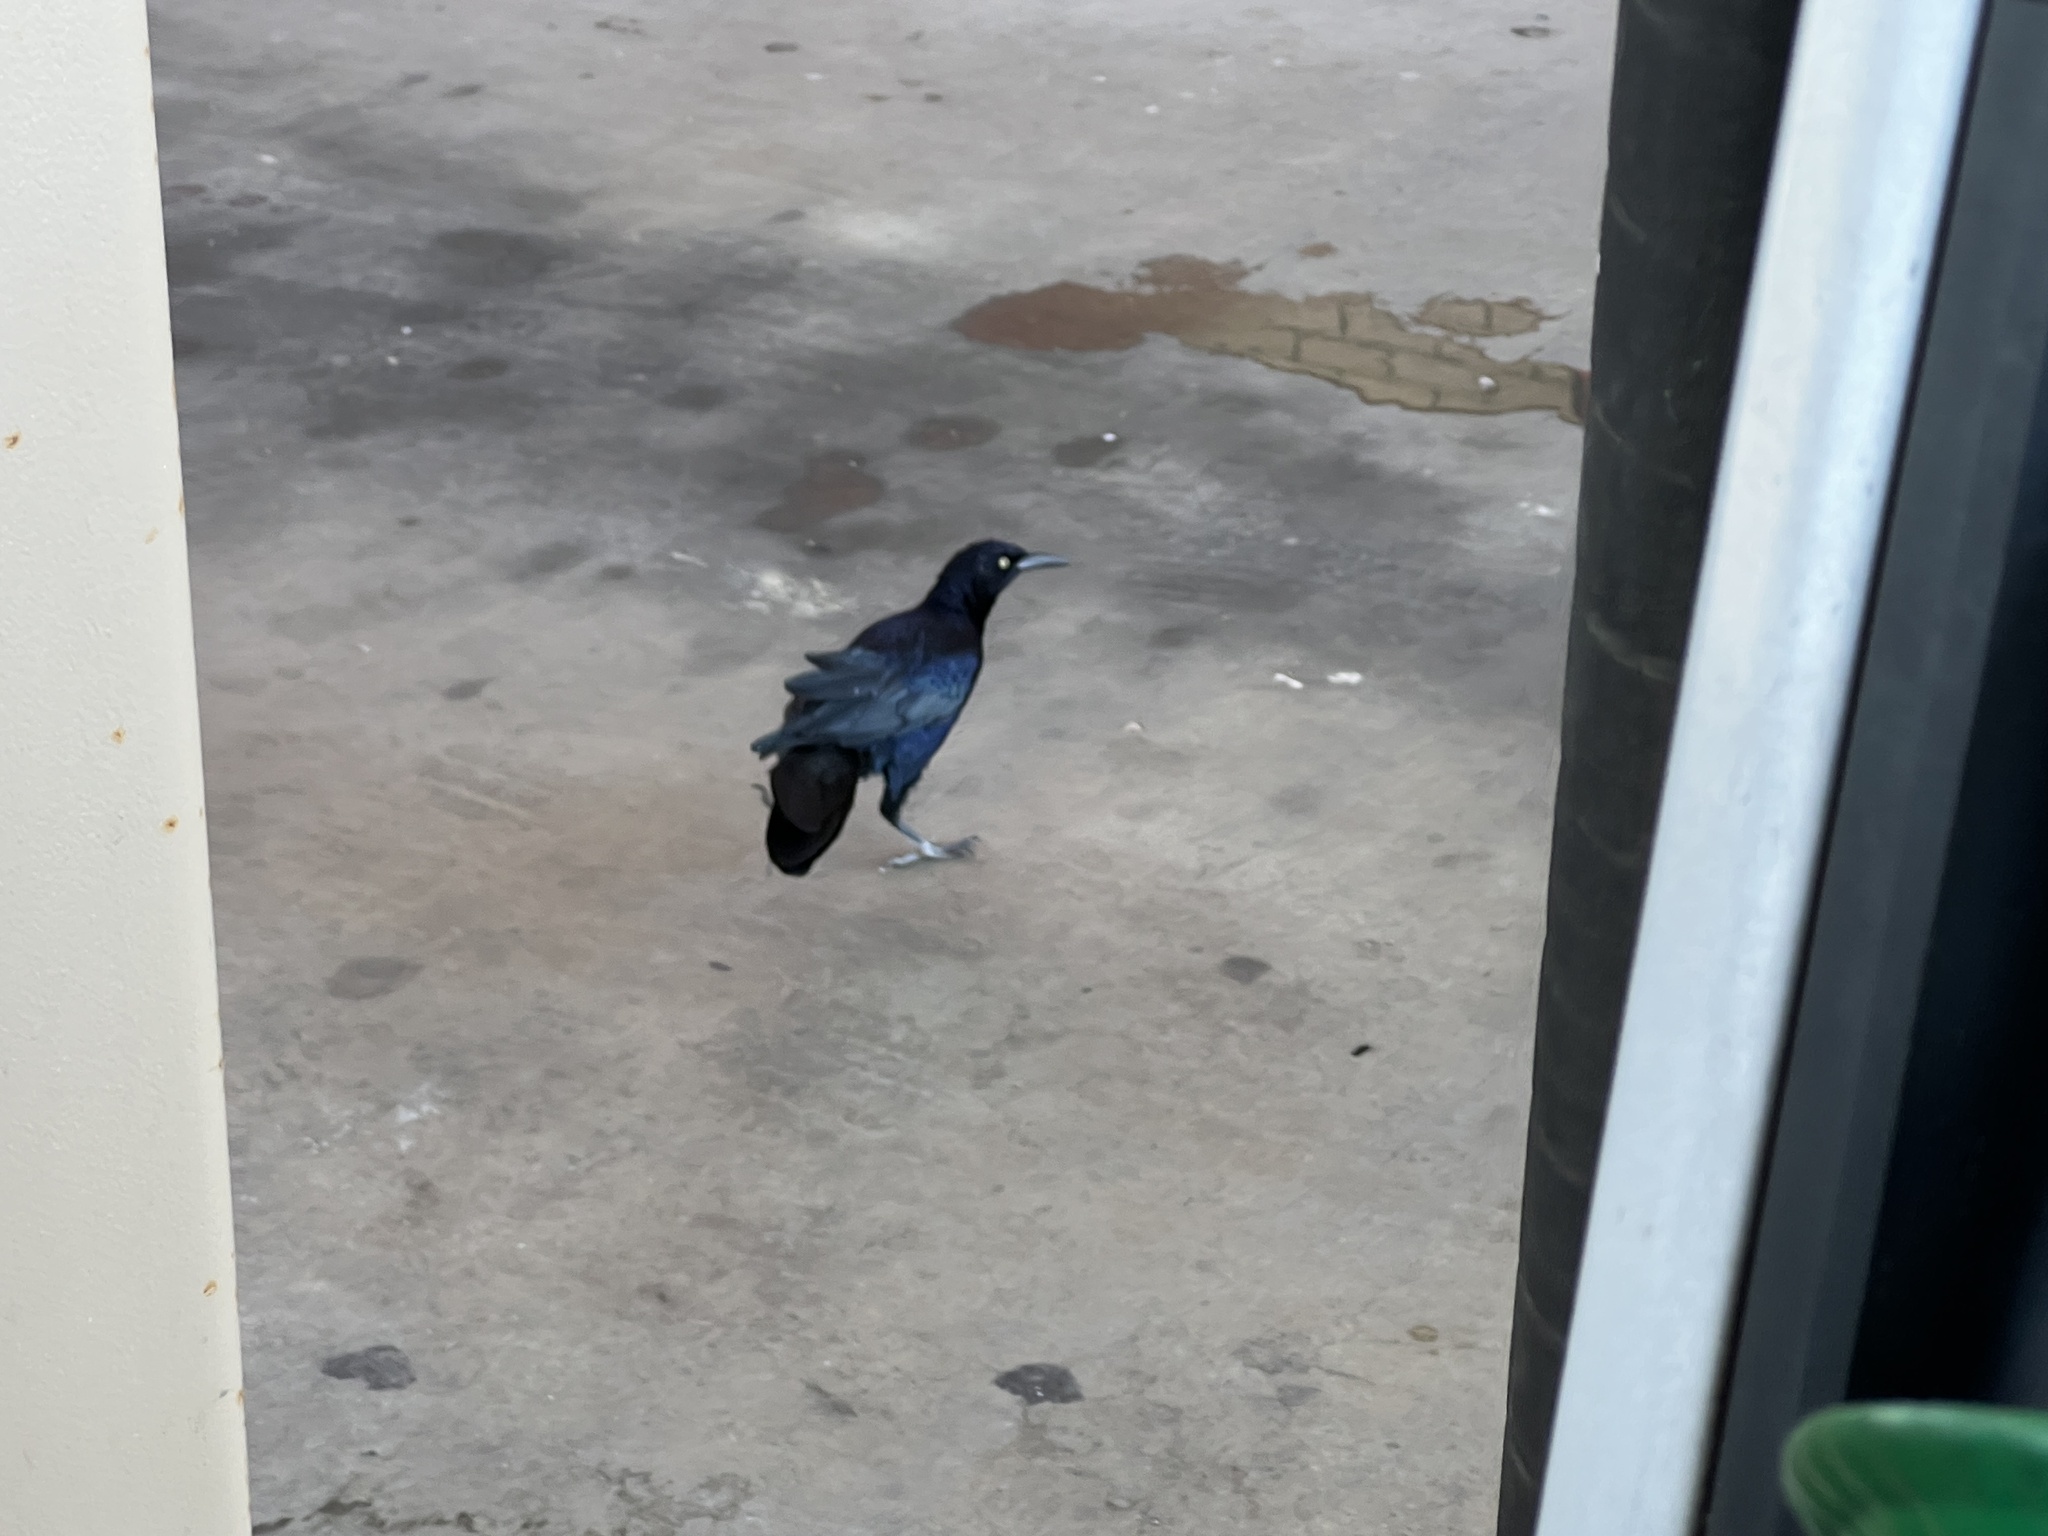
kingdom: Animalia
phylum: Chordata
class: Aves
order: Passeriformes
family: Icteridae
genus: Quiscalus
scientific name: Quiscalus mexicanus
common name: Great-tailed grackle
